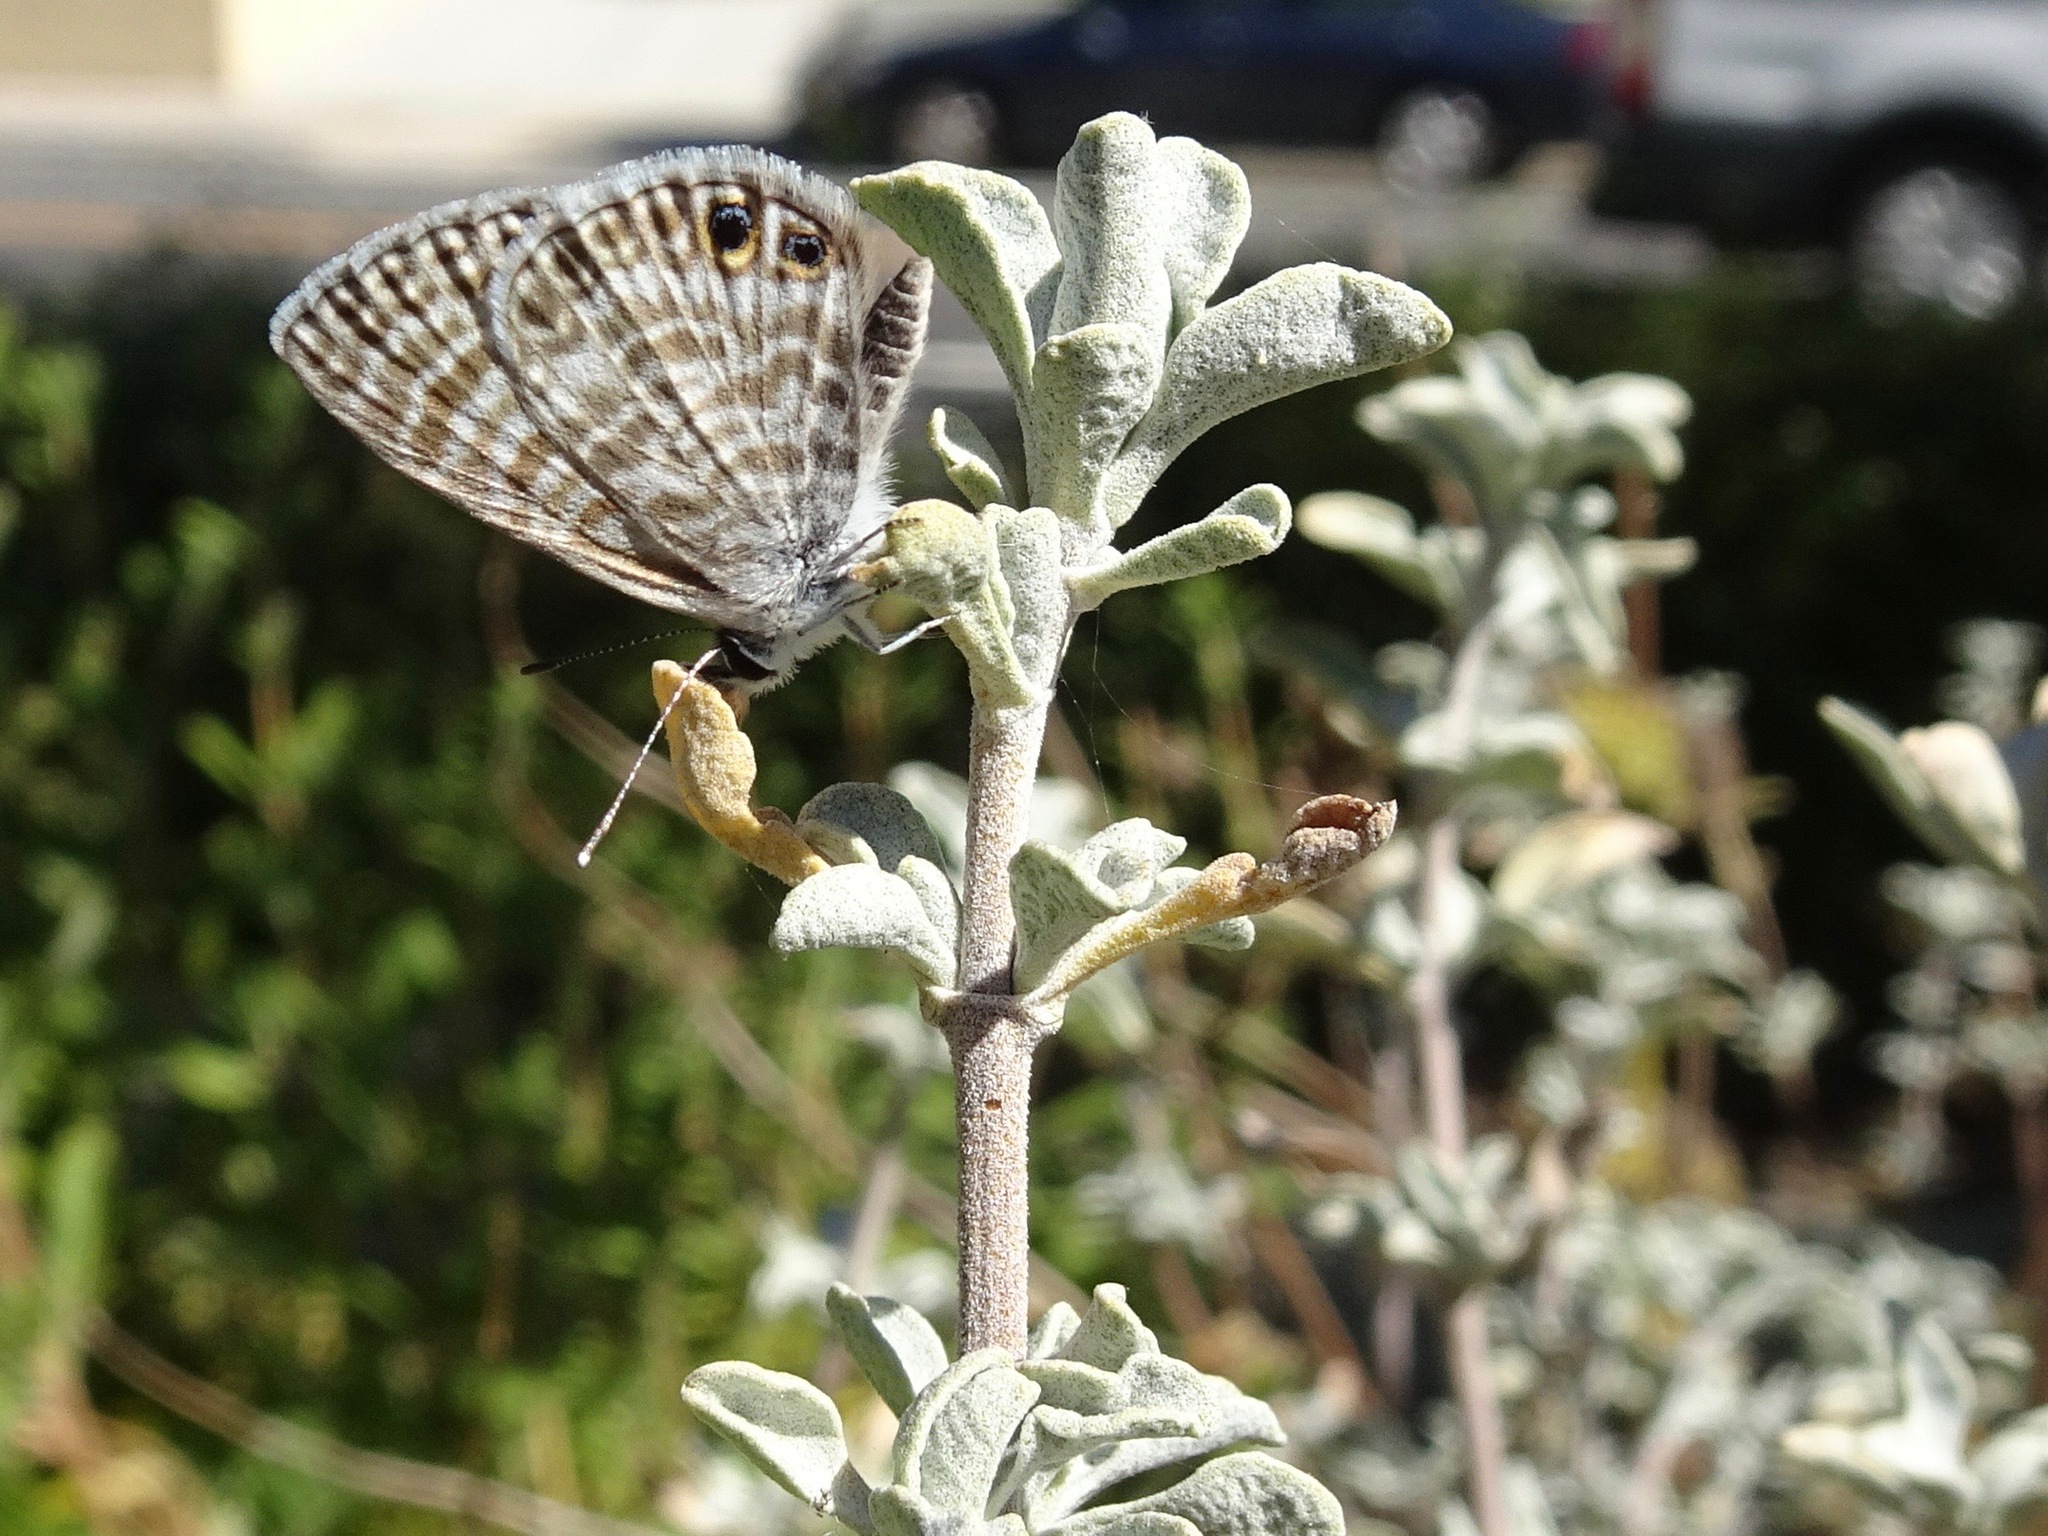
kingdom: Animalia
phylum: Arthropoda
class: Insecta
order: Lepidoptera
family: Lycaenidae
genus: Leptotes
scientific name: Leptotes marina
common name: Marine blue
